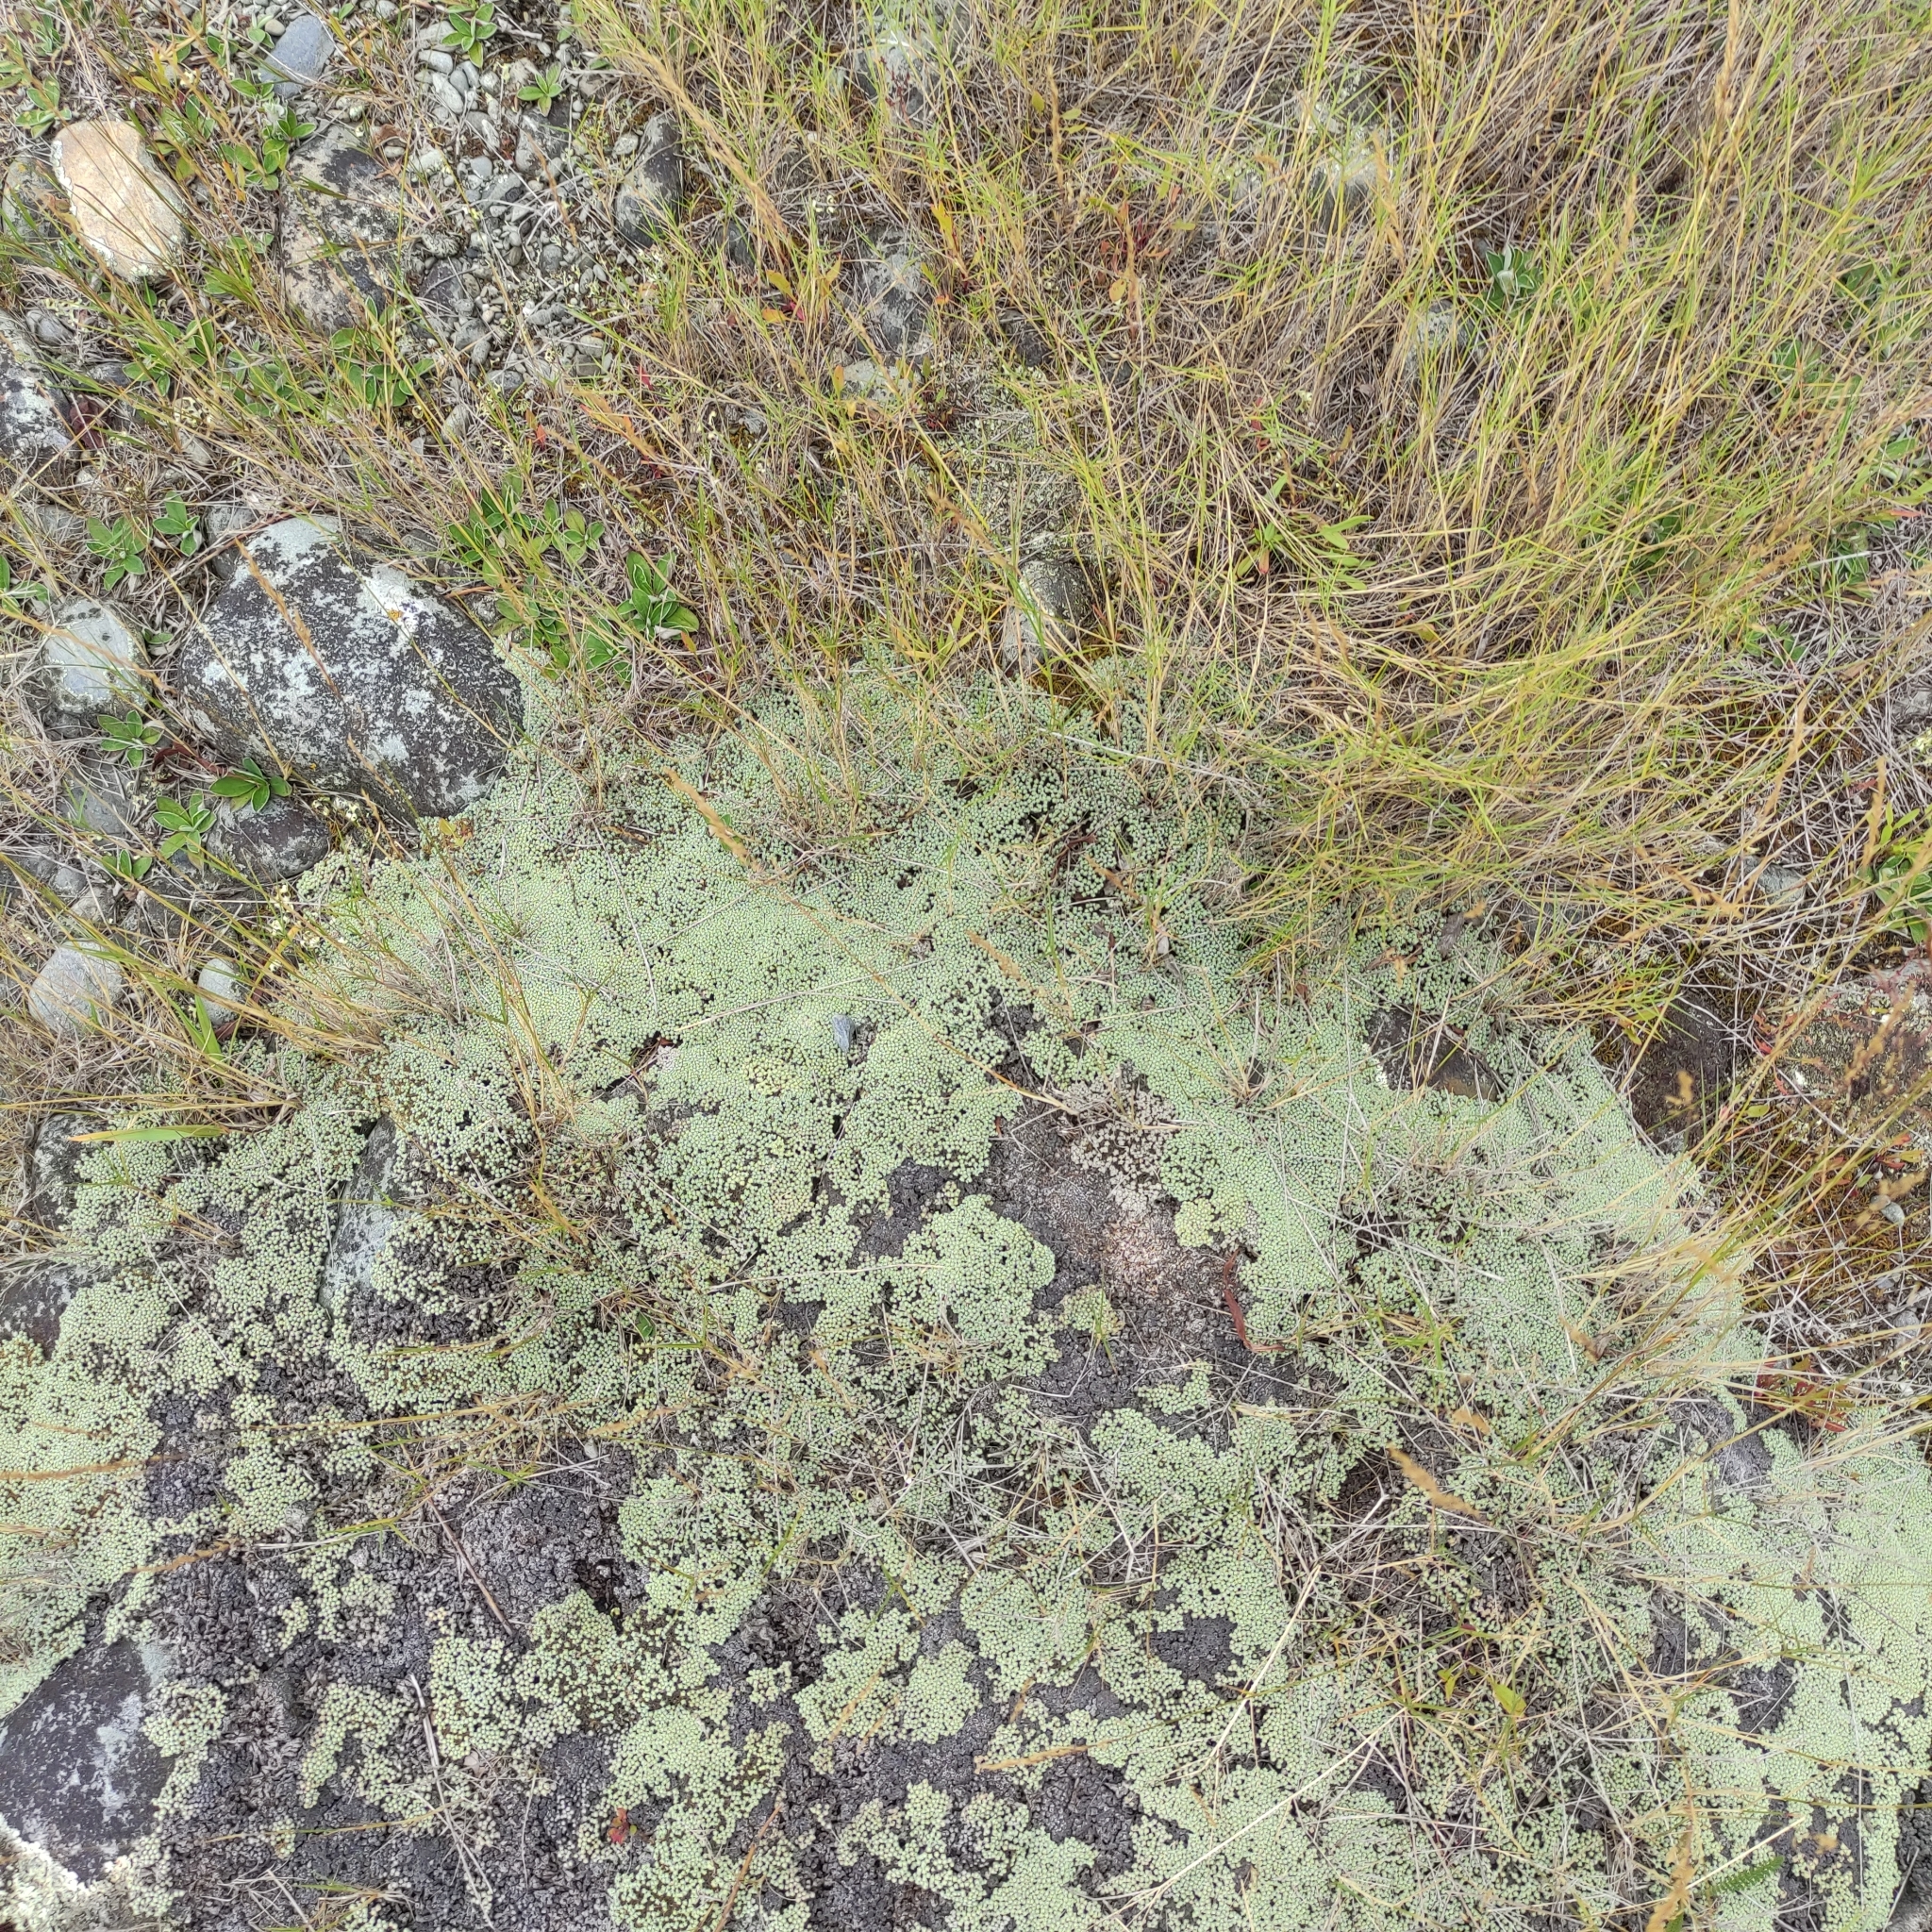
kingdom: Plantae
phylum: Tracheophyta
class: Magnoliopsida
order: Asterales
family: Asteraceae
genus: Raoulia
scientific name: Raoulia australis
